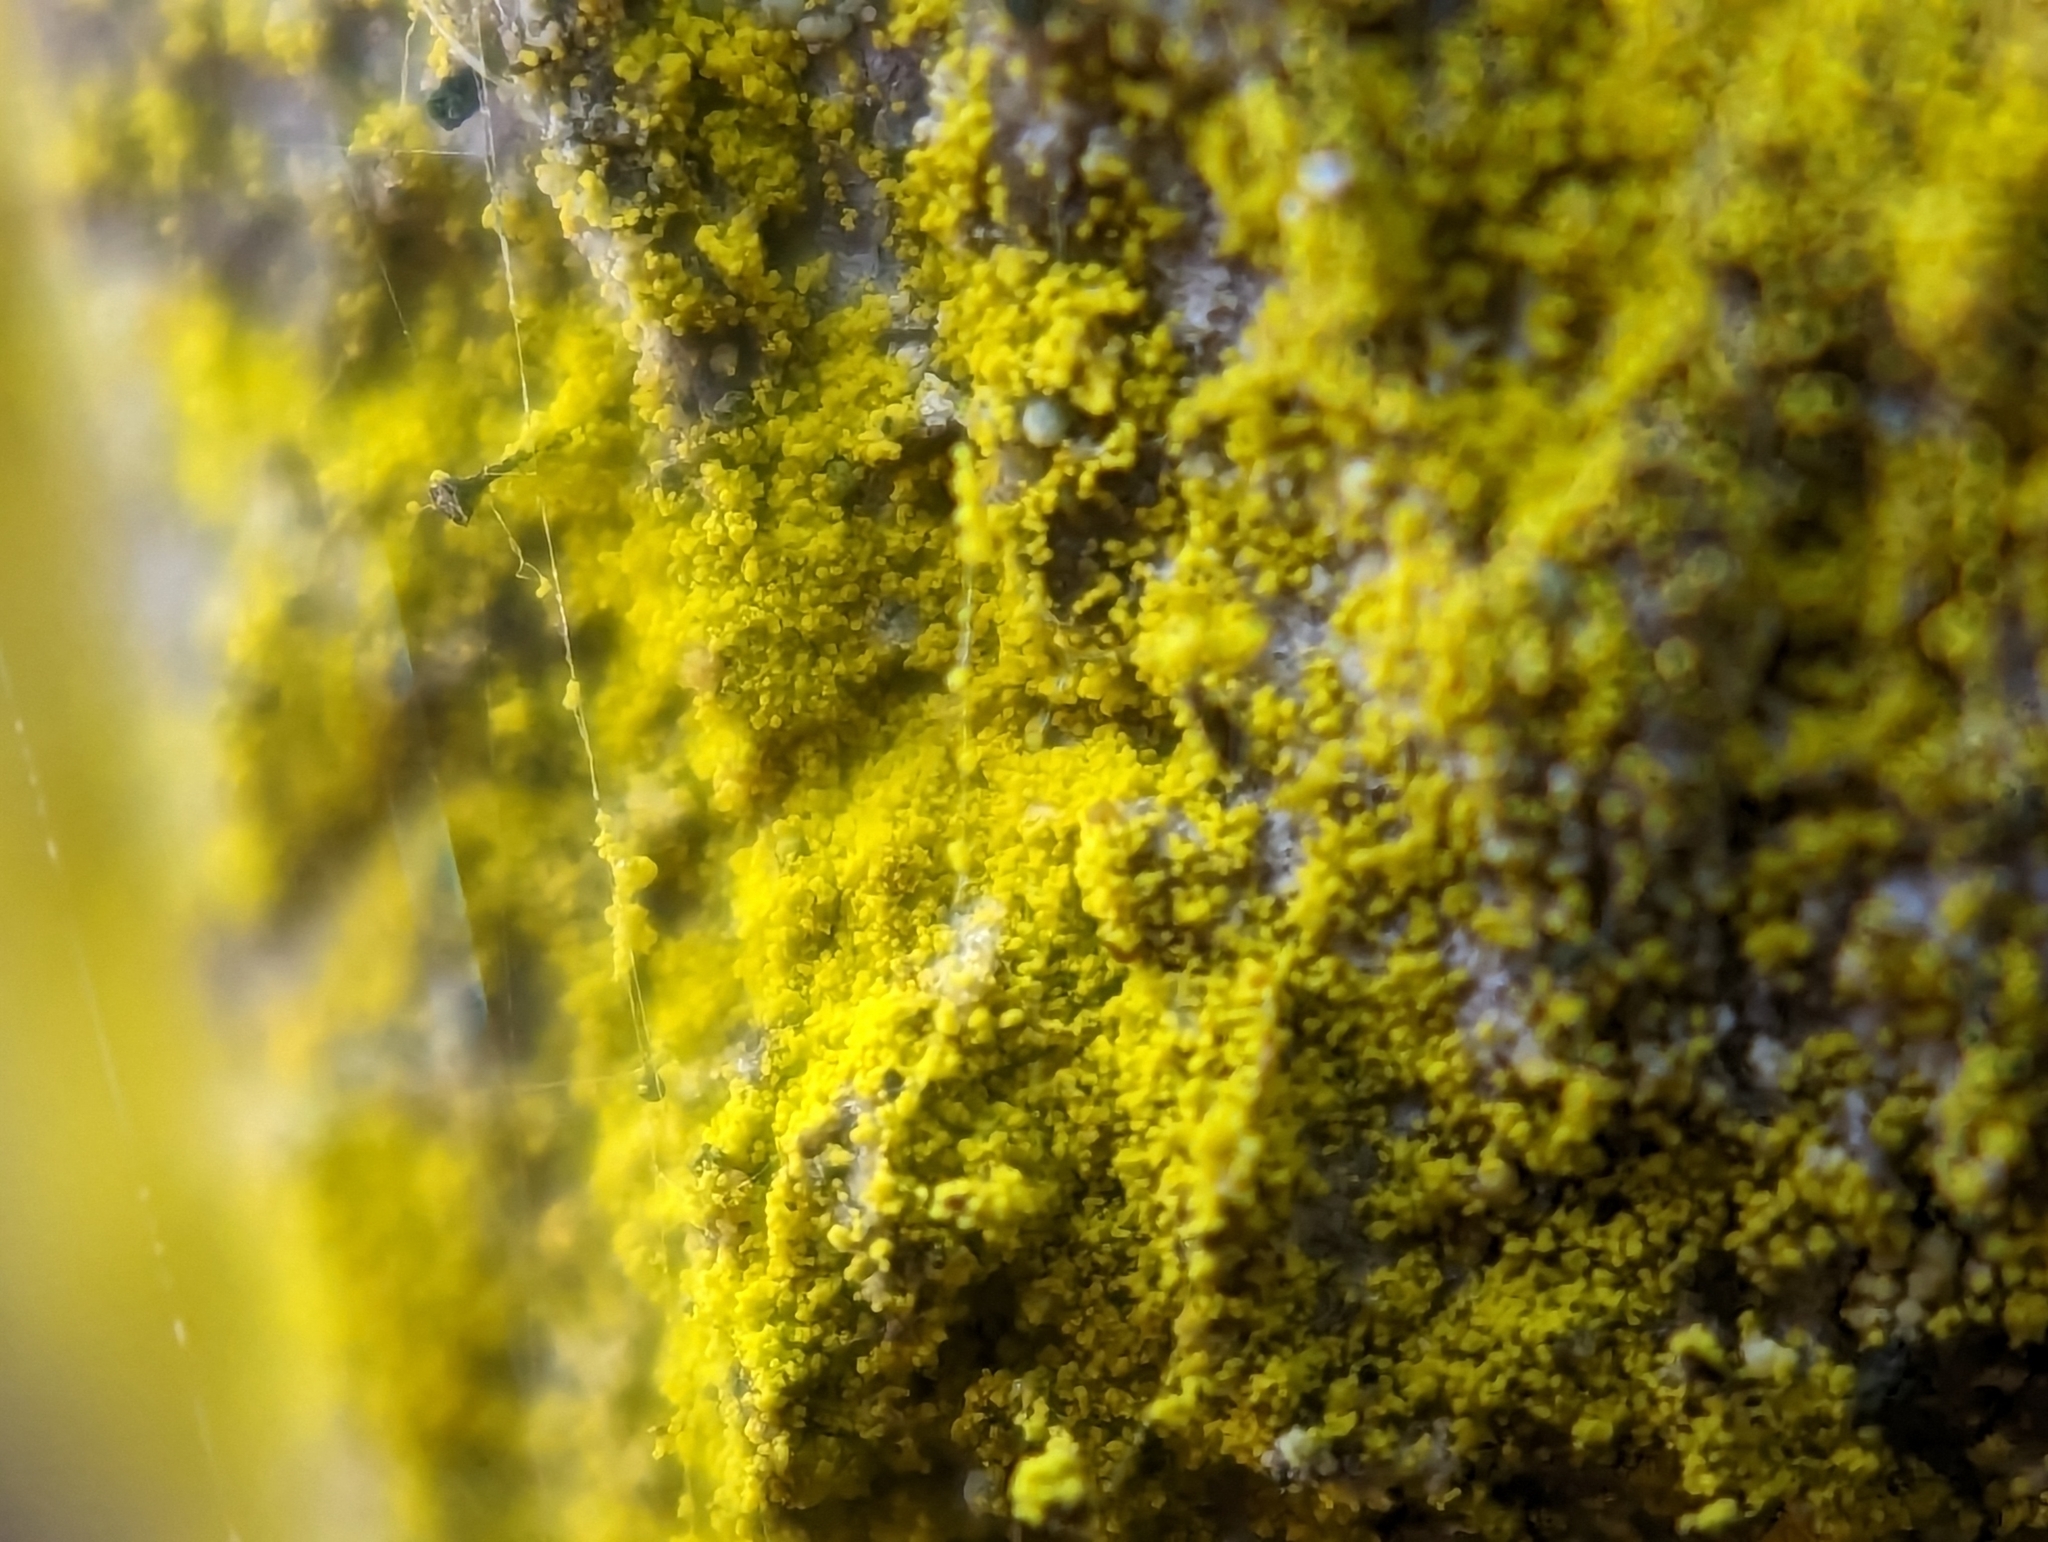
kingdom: Fungi
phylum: Ascomycota
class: Arthoniomycetes
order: Arthoniales
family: Chrysotrichaceae
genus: Chrysothrix
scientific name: Chrysothrix candelaris
